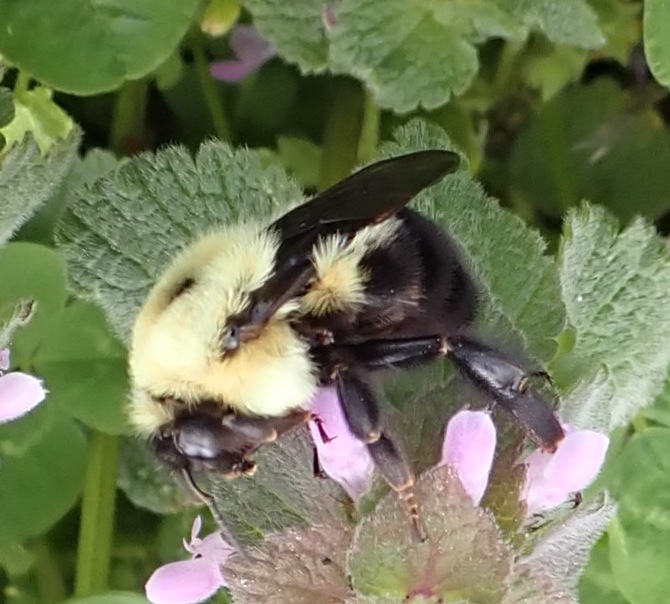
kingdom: Animalia
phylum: Arthropoda
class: Insecta
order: Hymenoptera
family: Apidae
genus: Bombus
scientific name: Bombus bimaculatus
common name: Two-spotted bumble bee
